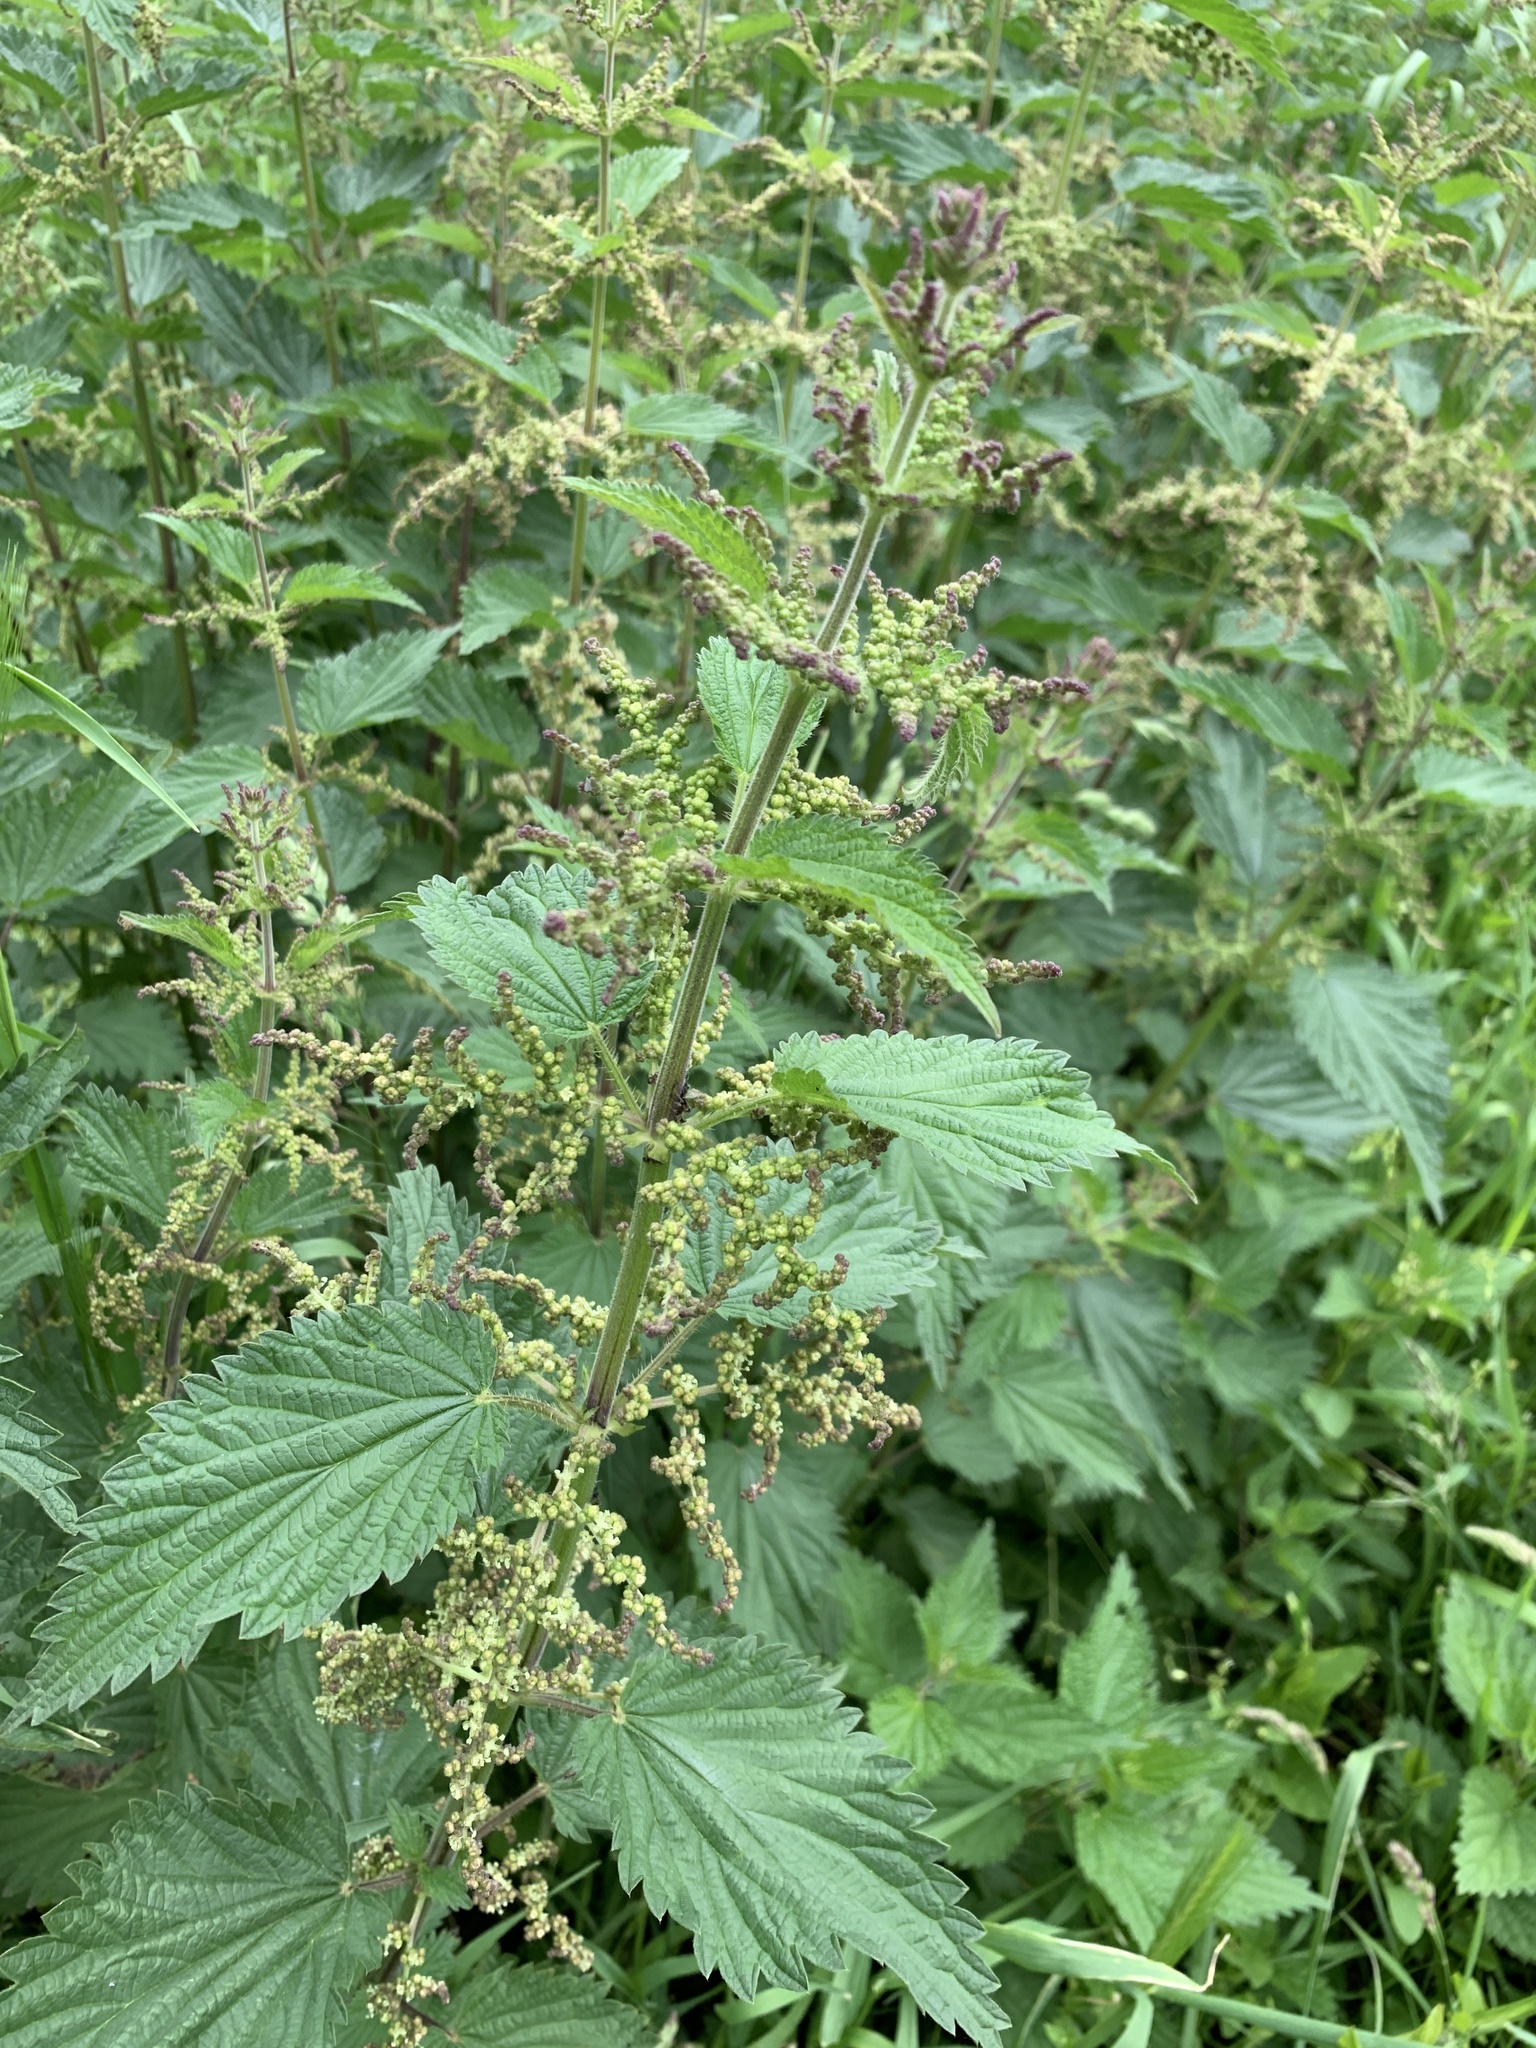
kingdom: Plantae
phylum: Tracheophyta
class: Magnoliopsida
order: Rosales
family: Urticaceae
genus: Urtica
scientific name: Urtica dioica
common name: Common nettle
